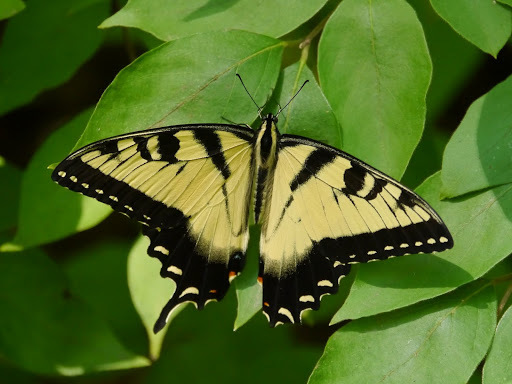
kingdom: Animalia
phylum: Arthropoda
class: Insecta
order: Lepidoptera
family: Papilionidae
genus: Papilio
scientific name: Papilio glaucus
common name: Tiger swallowtail
